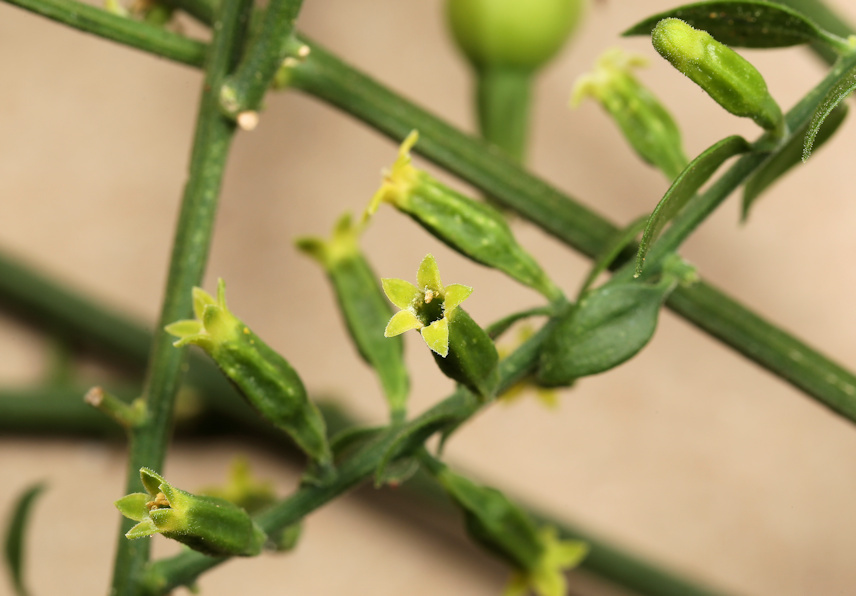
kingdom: Plantae
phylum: Tracheophyta
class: Magnoliopsida
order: Santalales
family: Thesiaceae
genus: Osyridicarpos
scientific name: Osyridicarpos schimperianus
